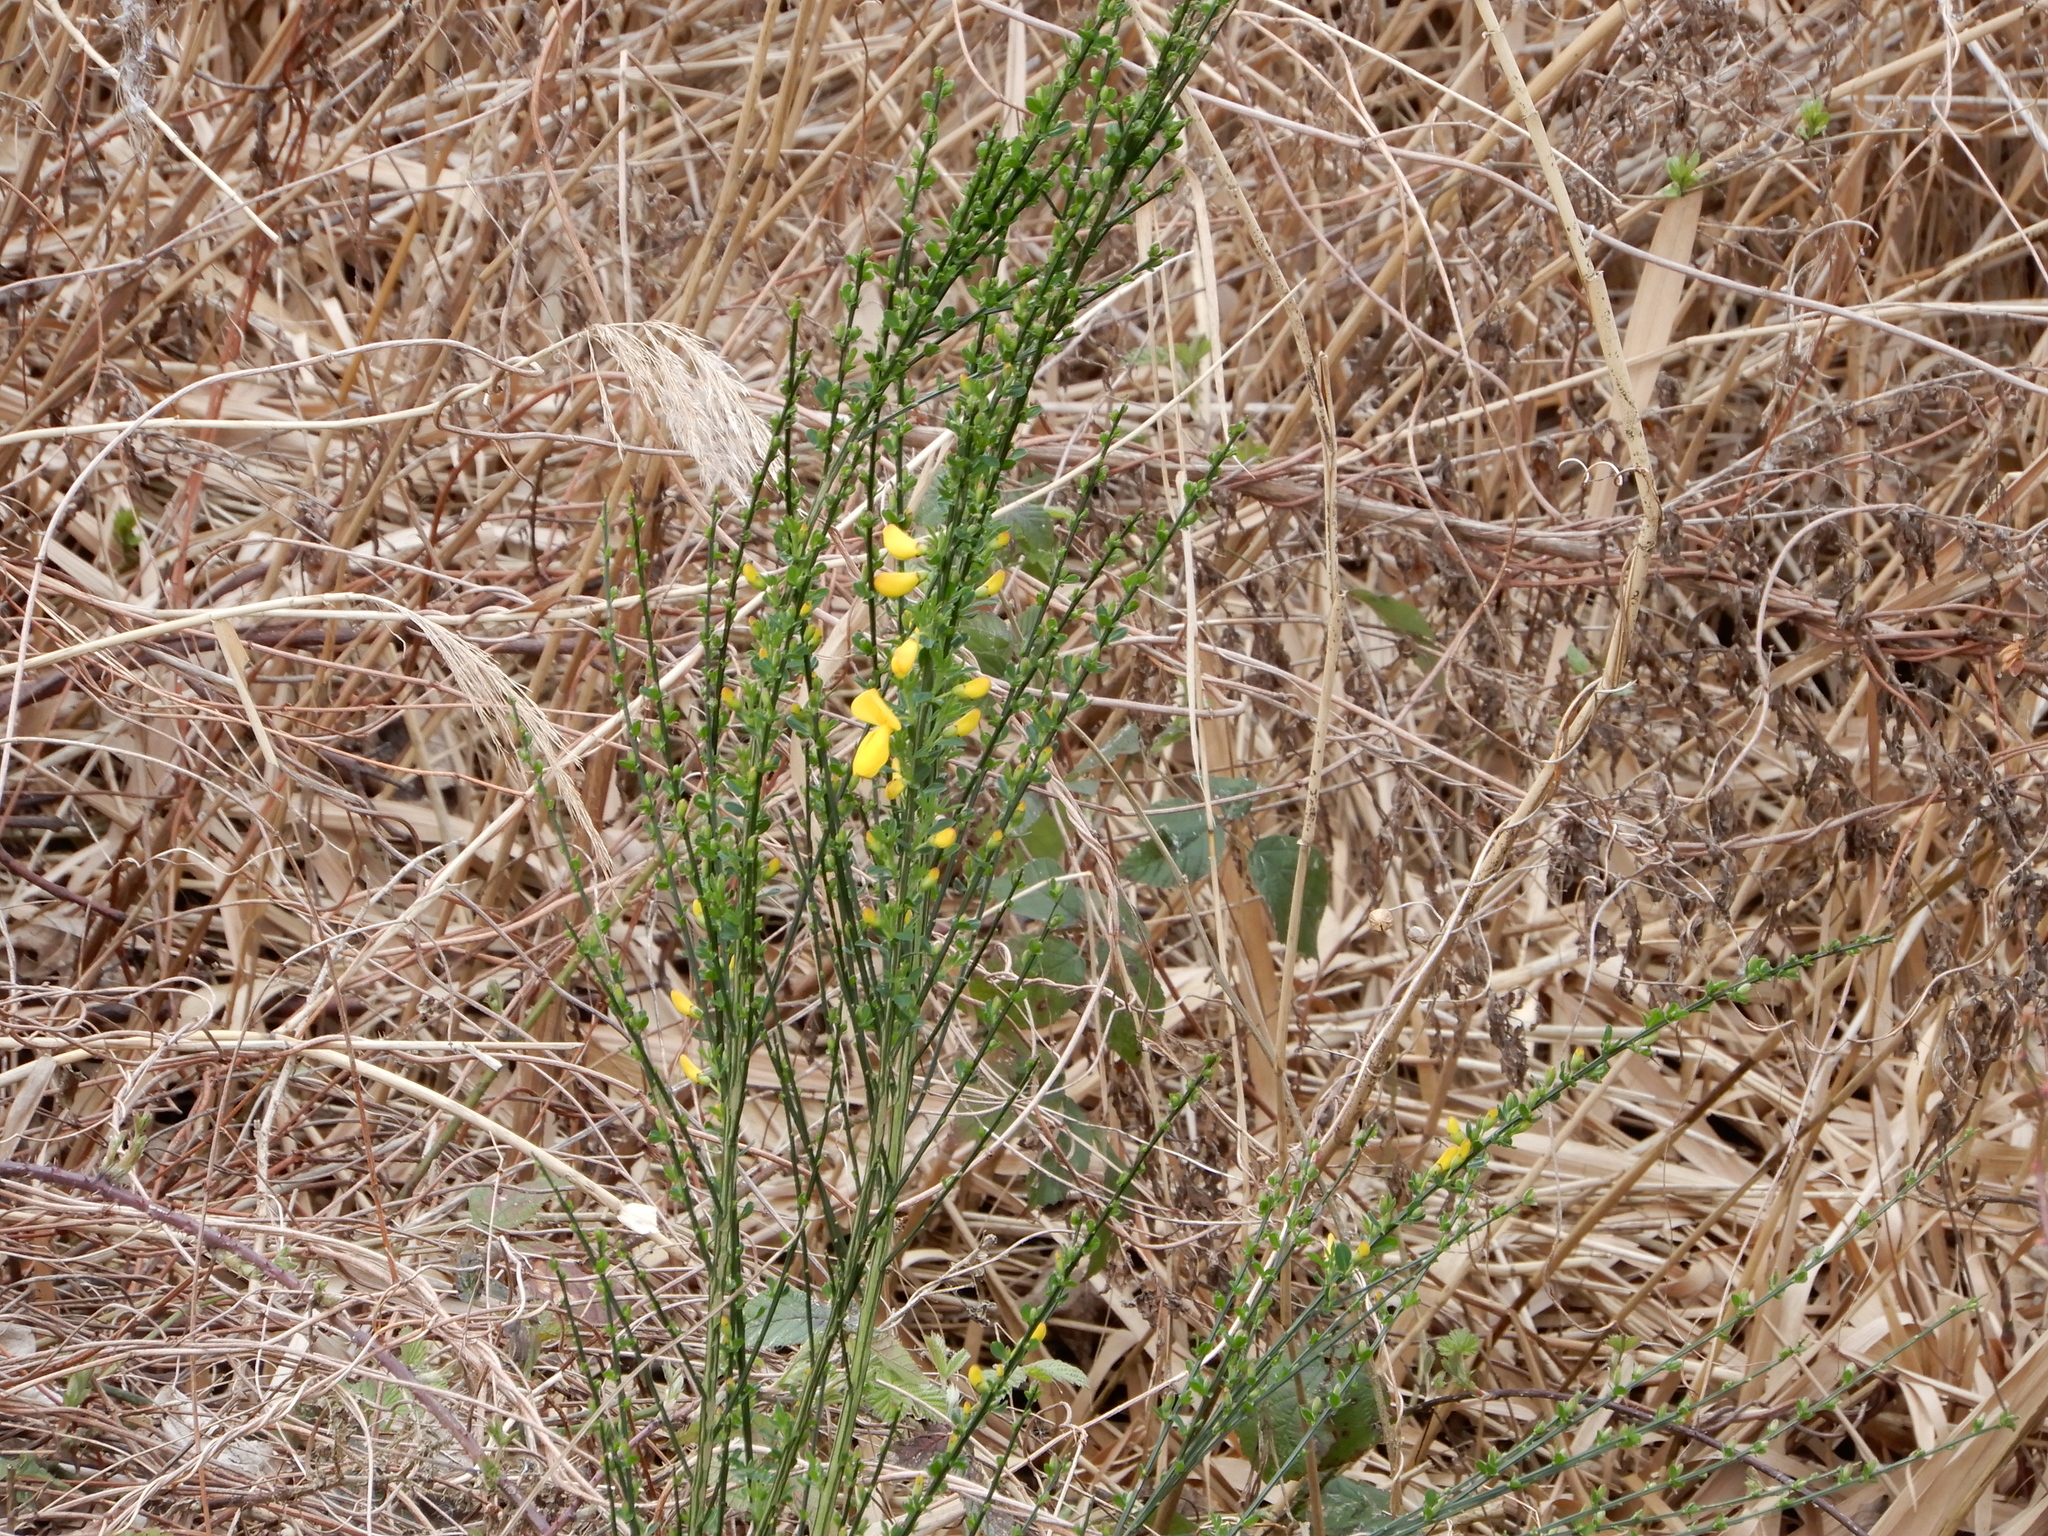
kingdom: Plantae
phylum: Tracheophyta
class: Magnoliopsida
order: Fabales
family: Fabaceae
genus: Cytisus
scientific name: Cytisus scoparius
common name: Scotch broom
